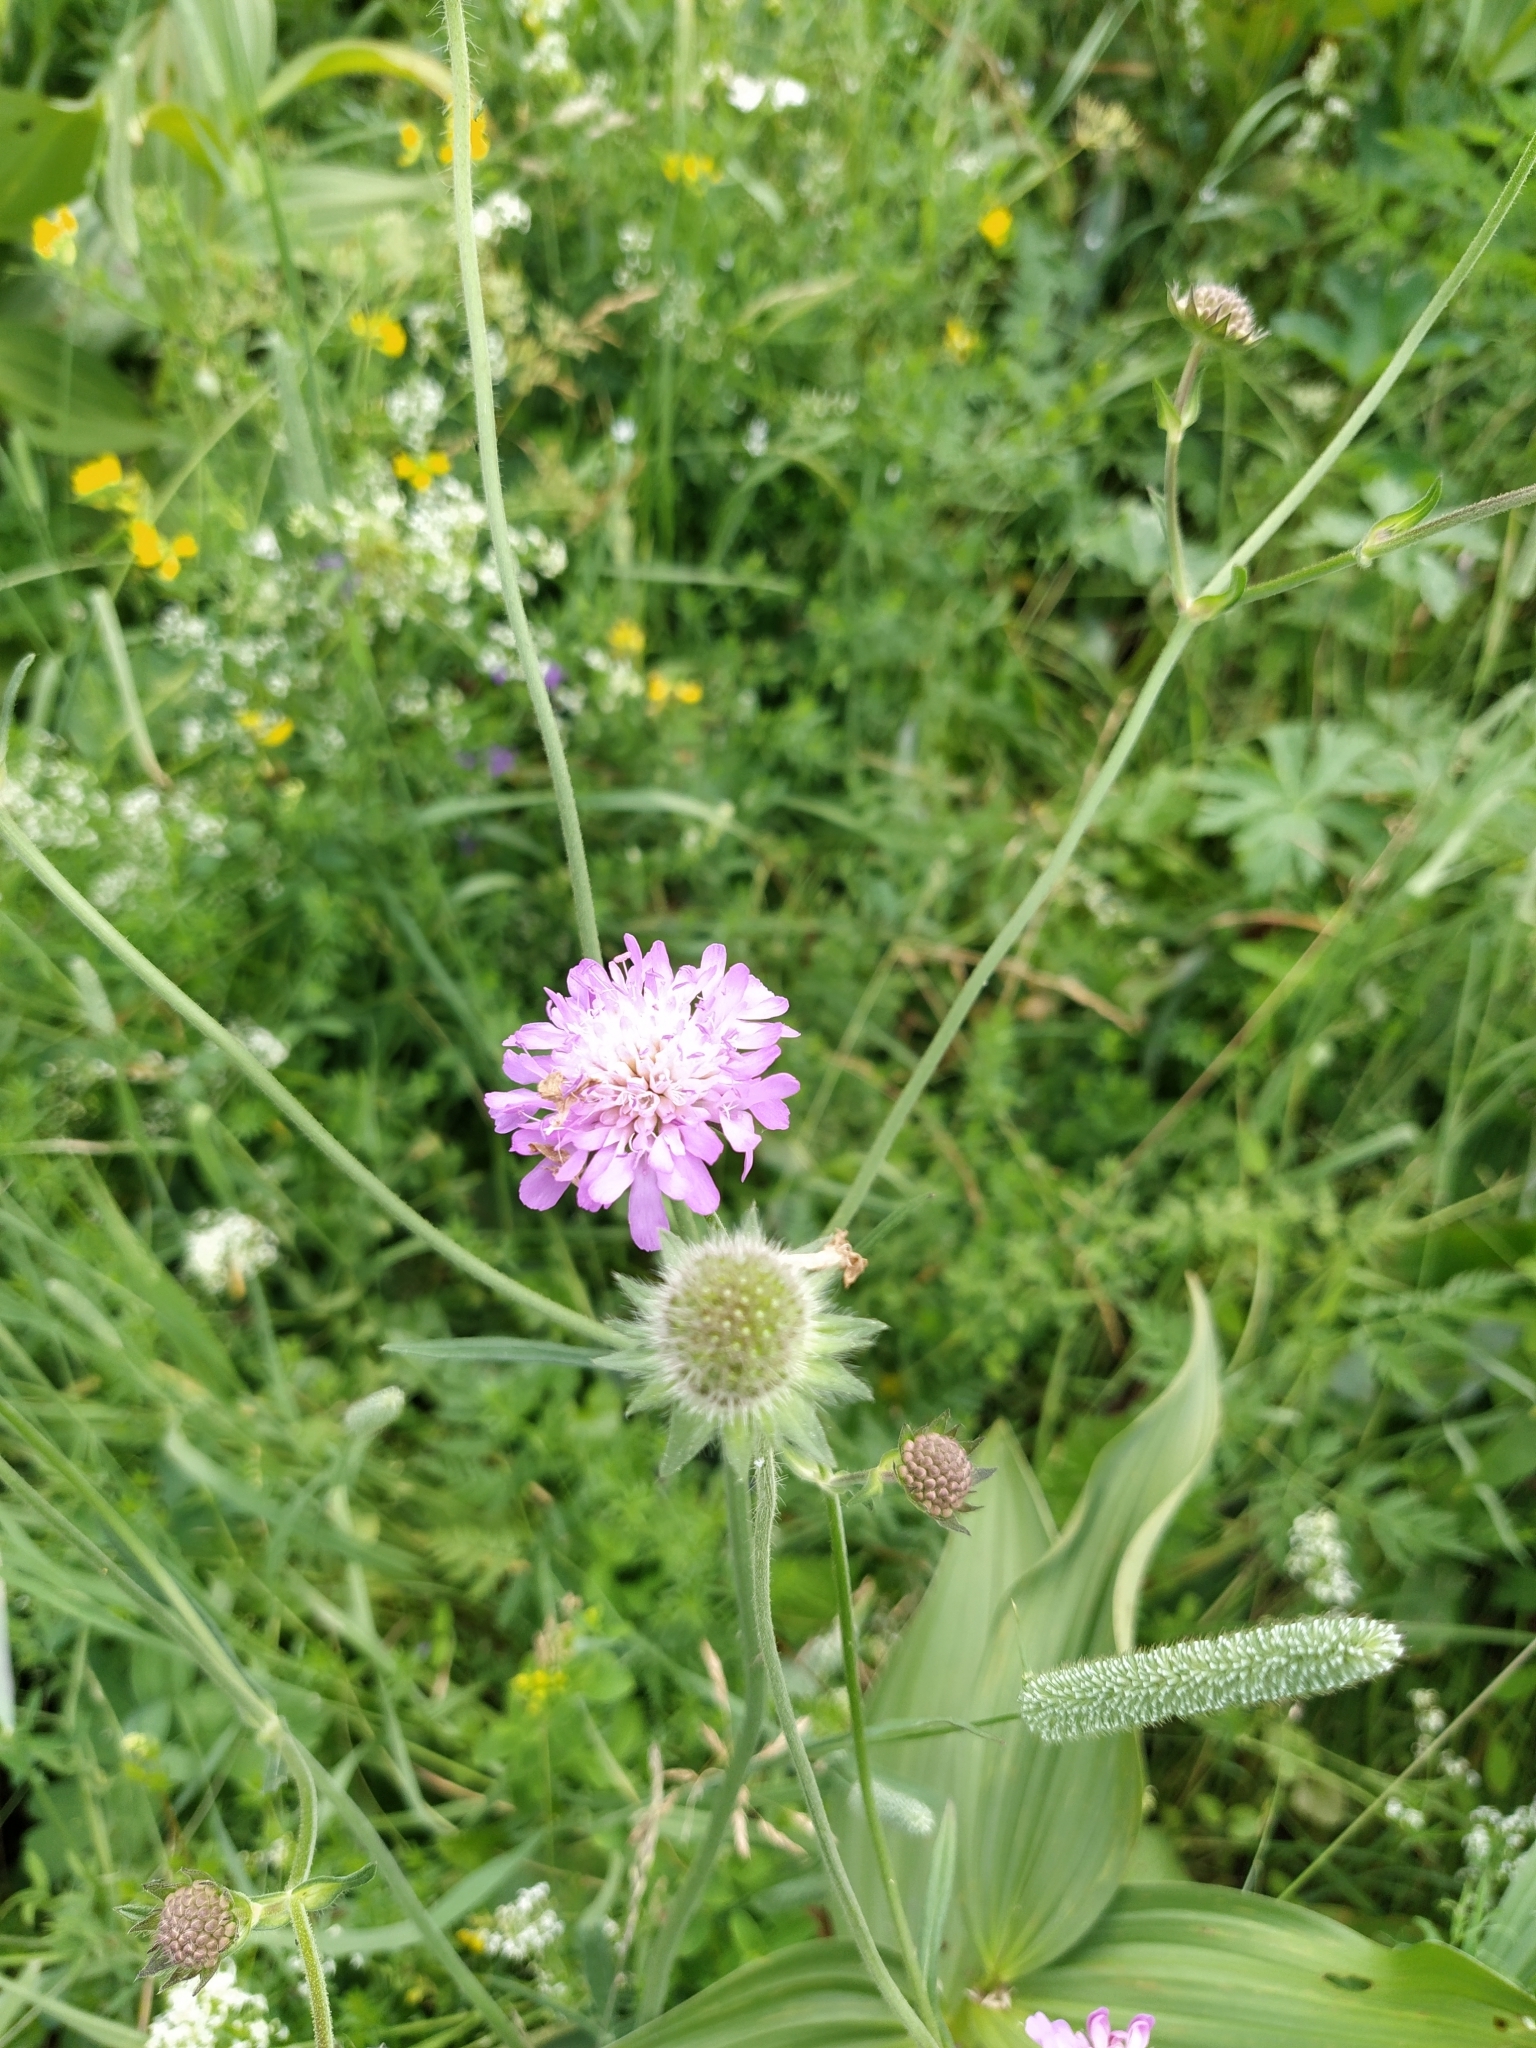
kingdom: Plantae
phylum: Tracheophyta
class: Magnoliopsida
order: Dipsacales
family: Caprifoliaceae
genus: Knautia
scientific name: Knautia arvensis
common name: Field scabiosa
